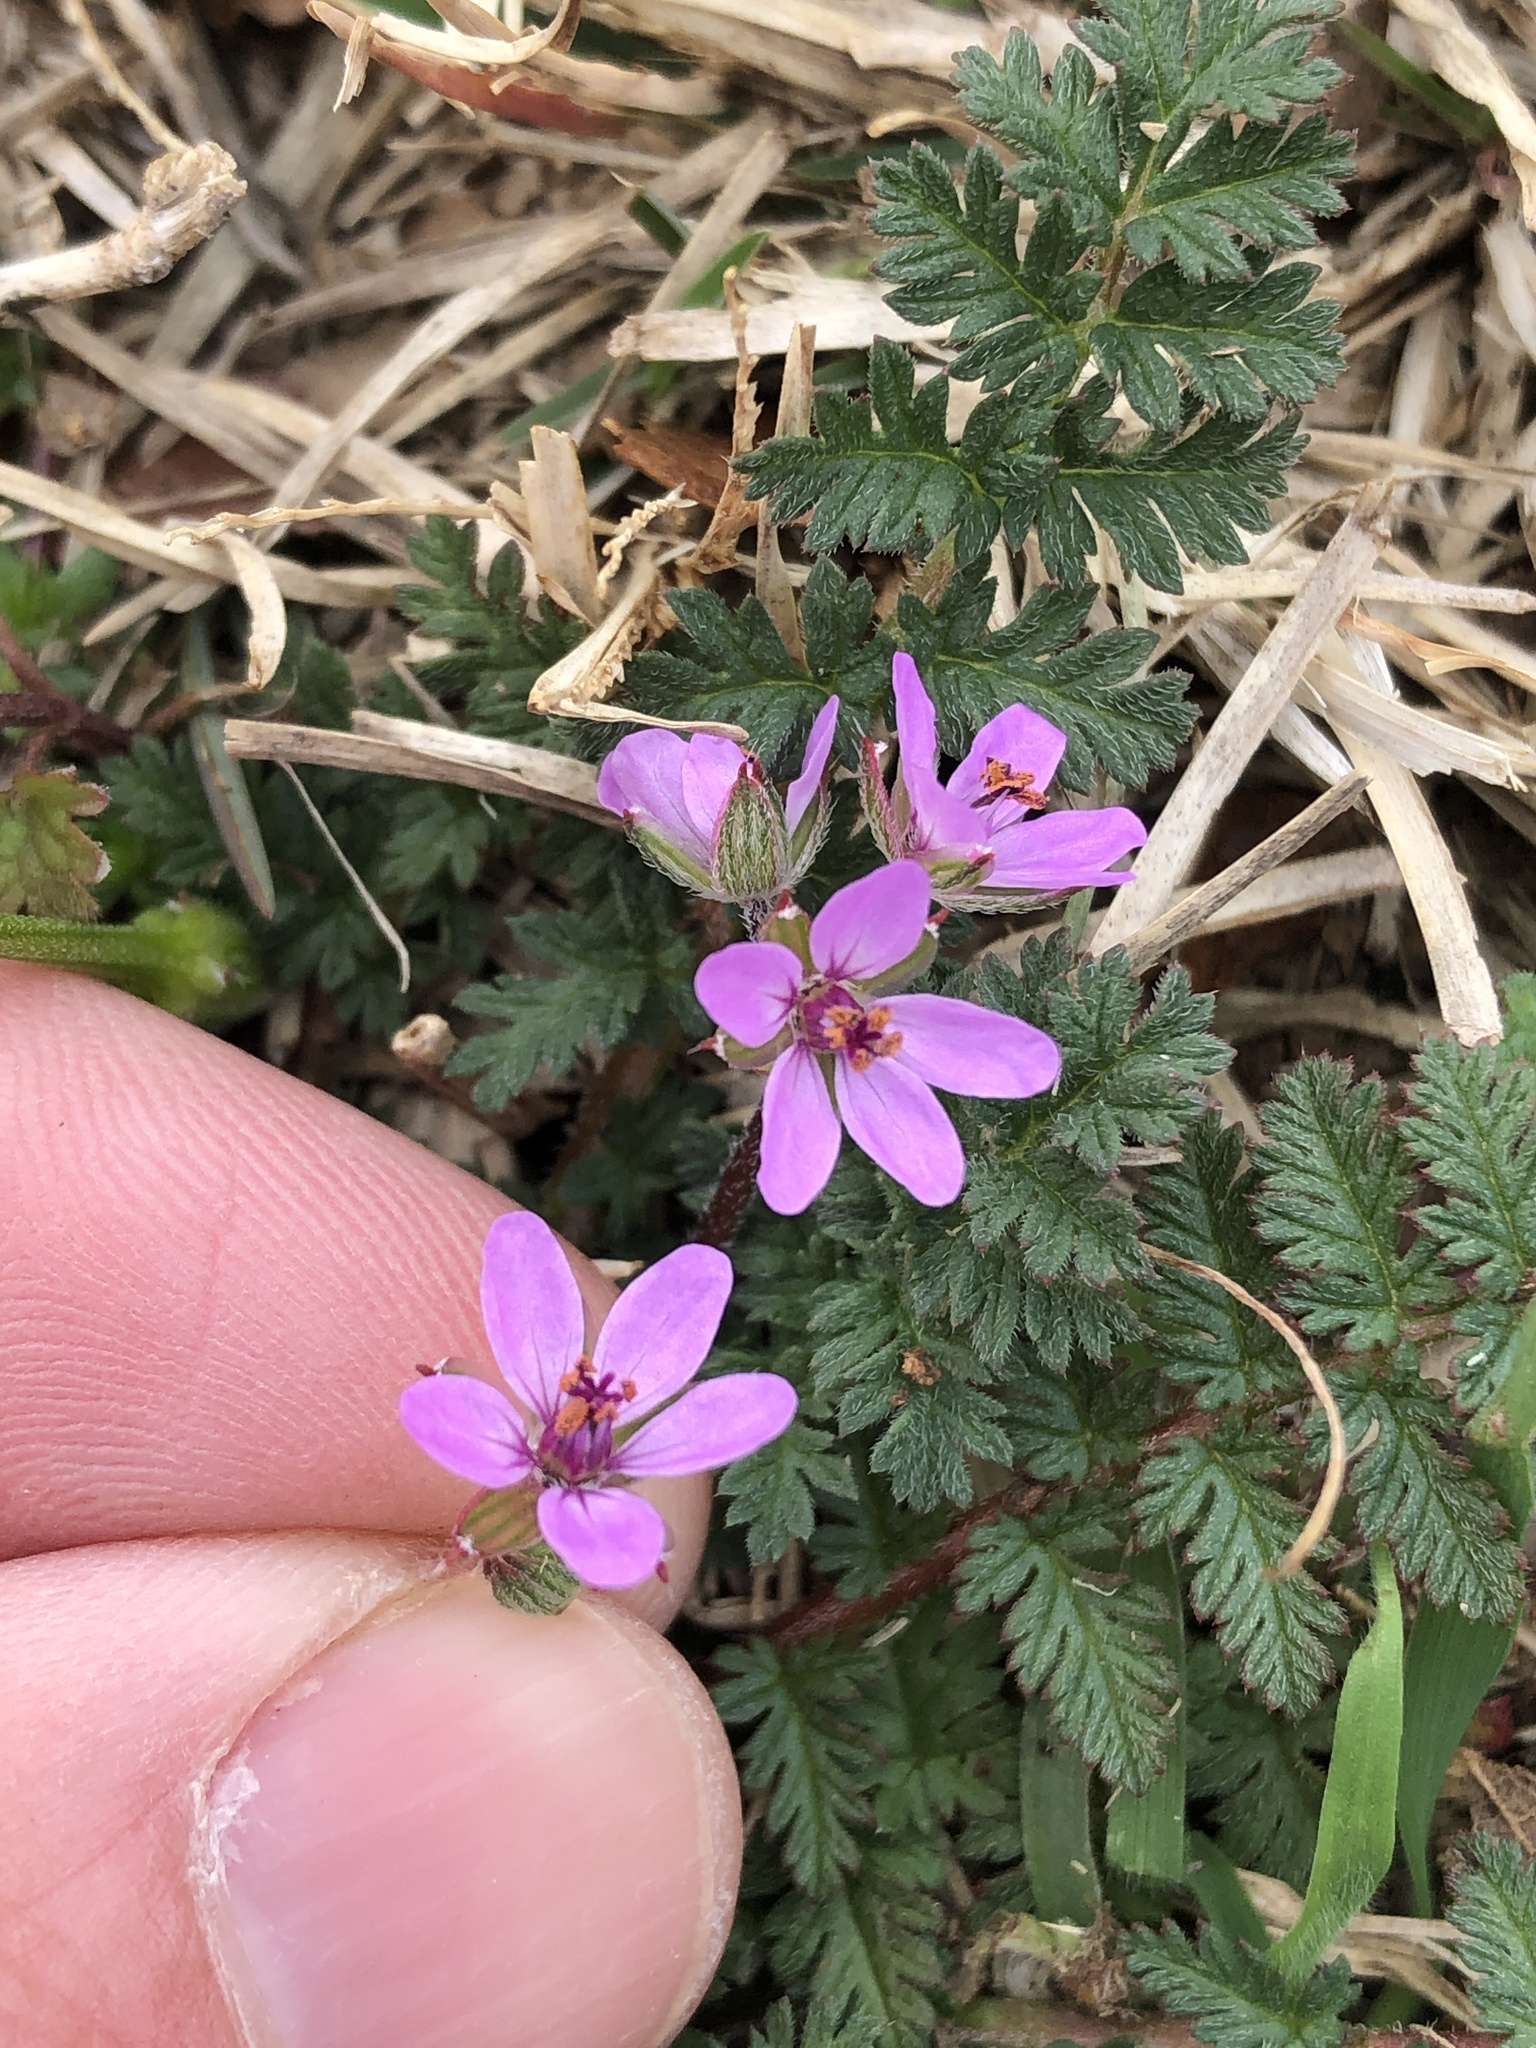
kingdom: Plantae
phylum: Tracheophyta
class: Magnoliopsida
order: Geraniales
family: Geraniaceae
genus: Erodium
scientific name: Erodium cicutarium
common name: Common stork's-bill
